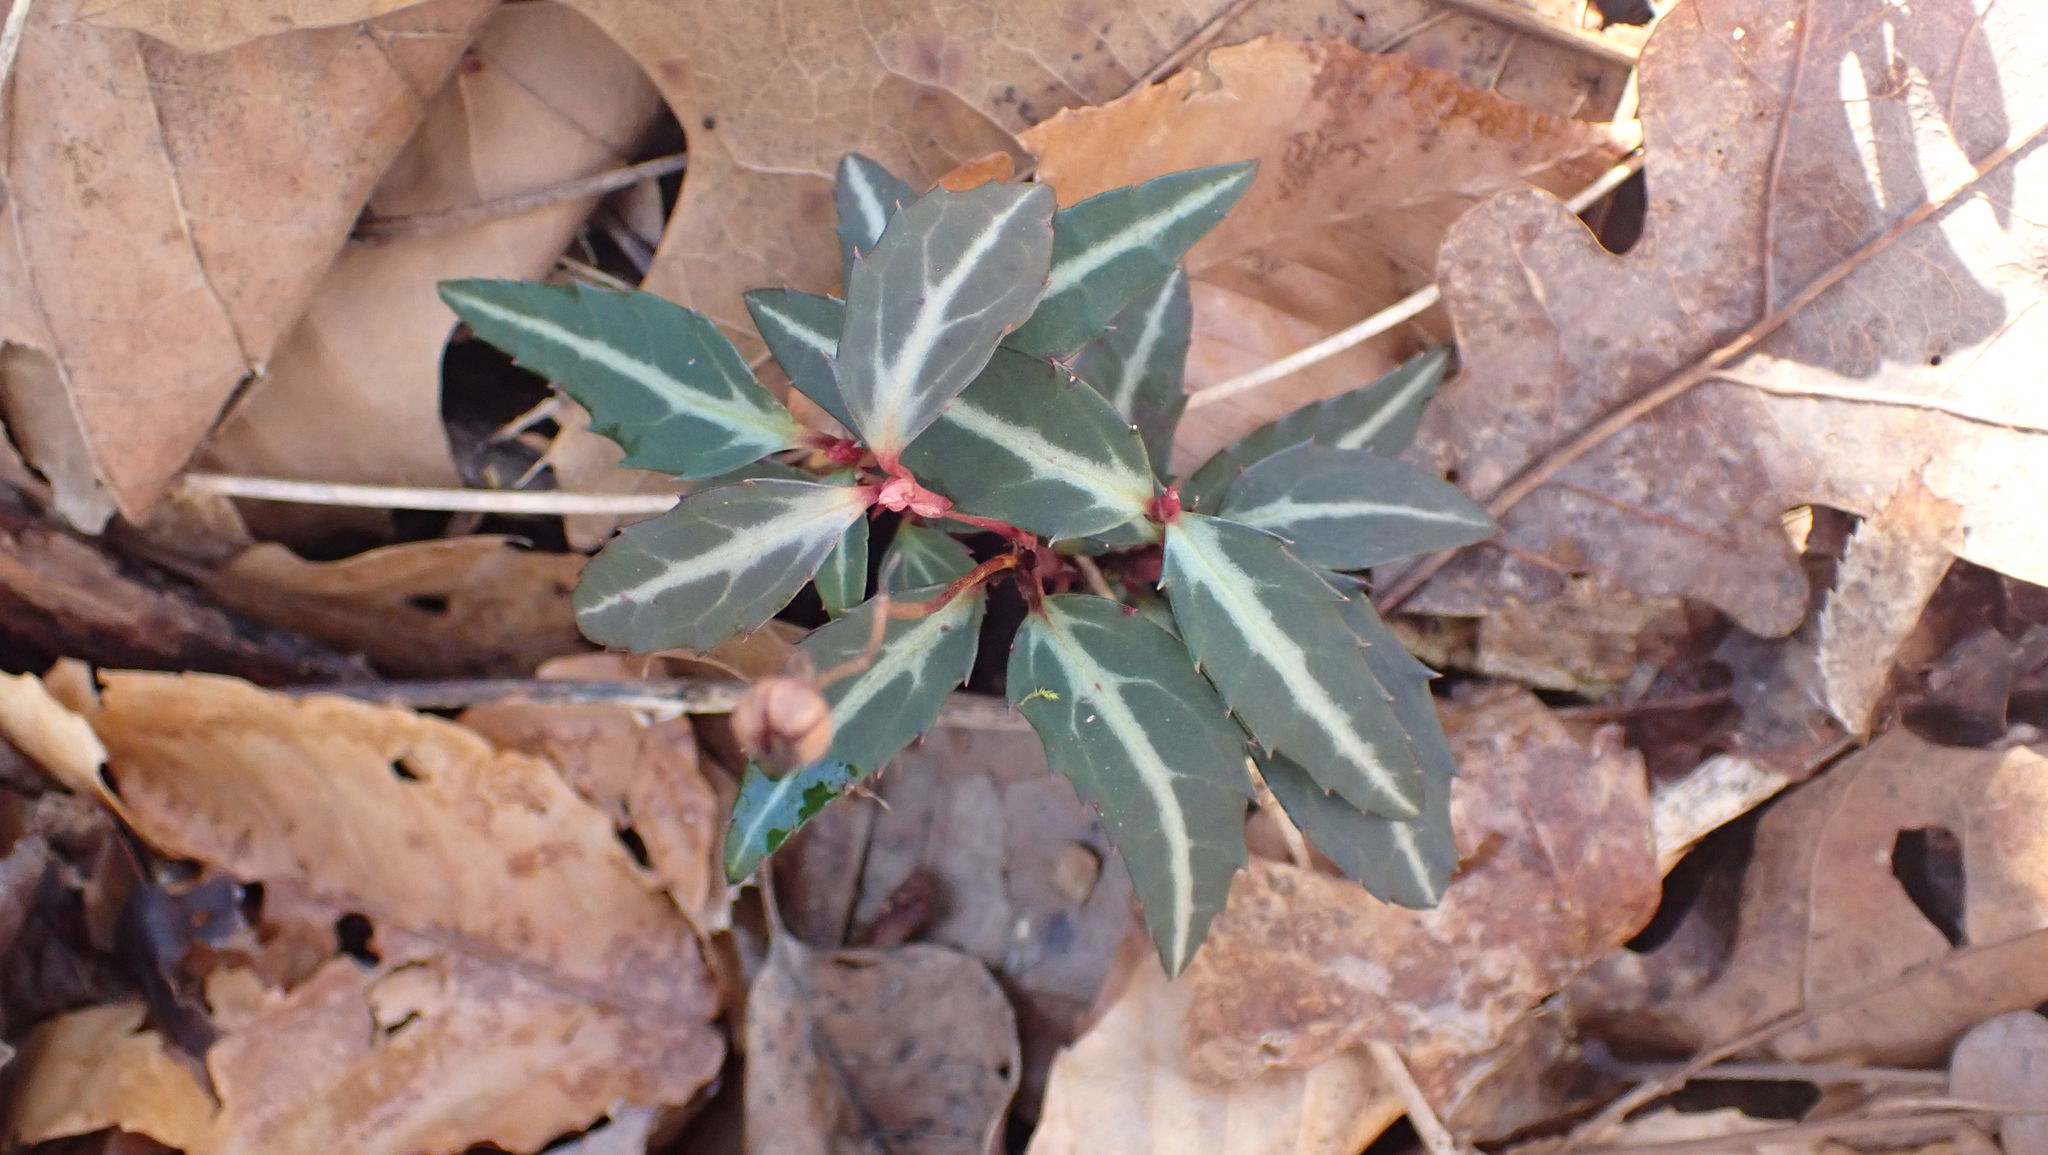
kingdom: Plantae
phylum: Tracheophyta
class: Magnoliopsida
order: Ericales
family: Ericaceae
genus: Chimaphila
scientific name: Chimaphila maculata
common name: Spotted pipsissewa
